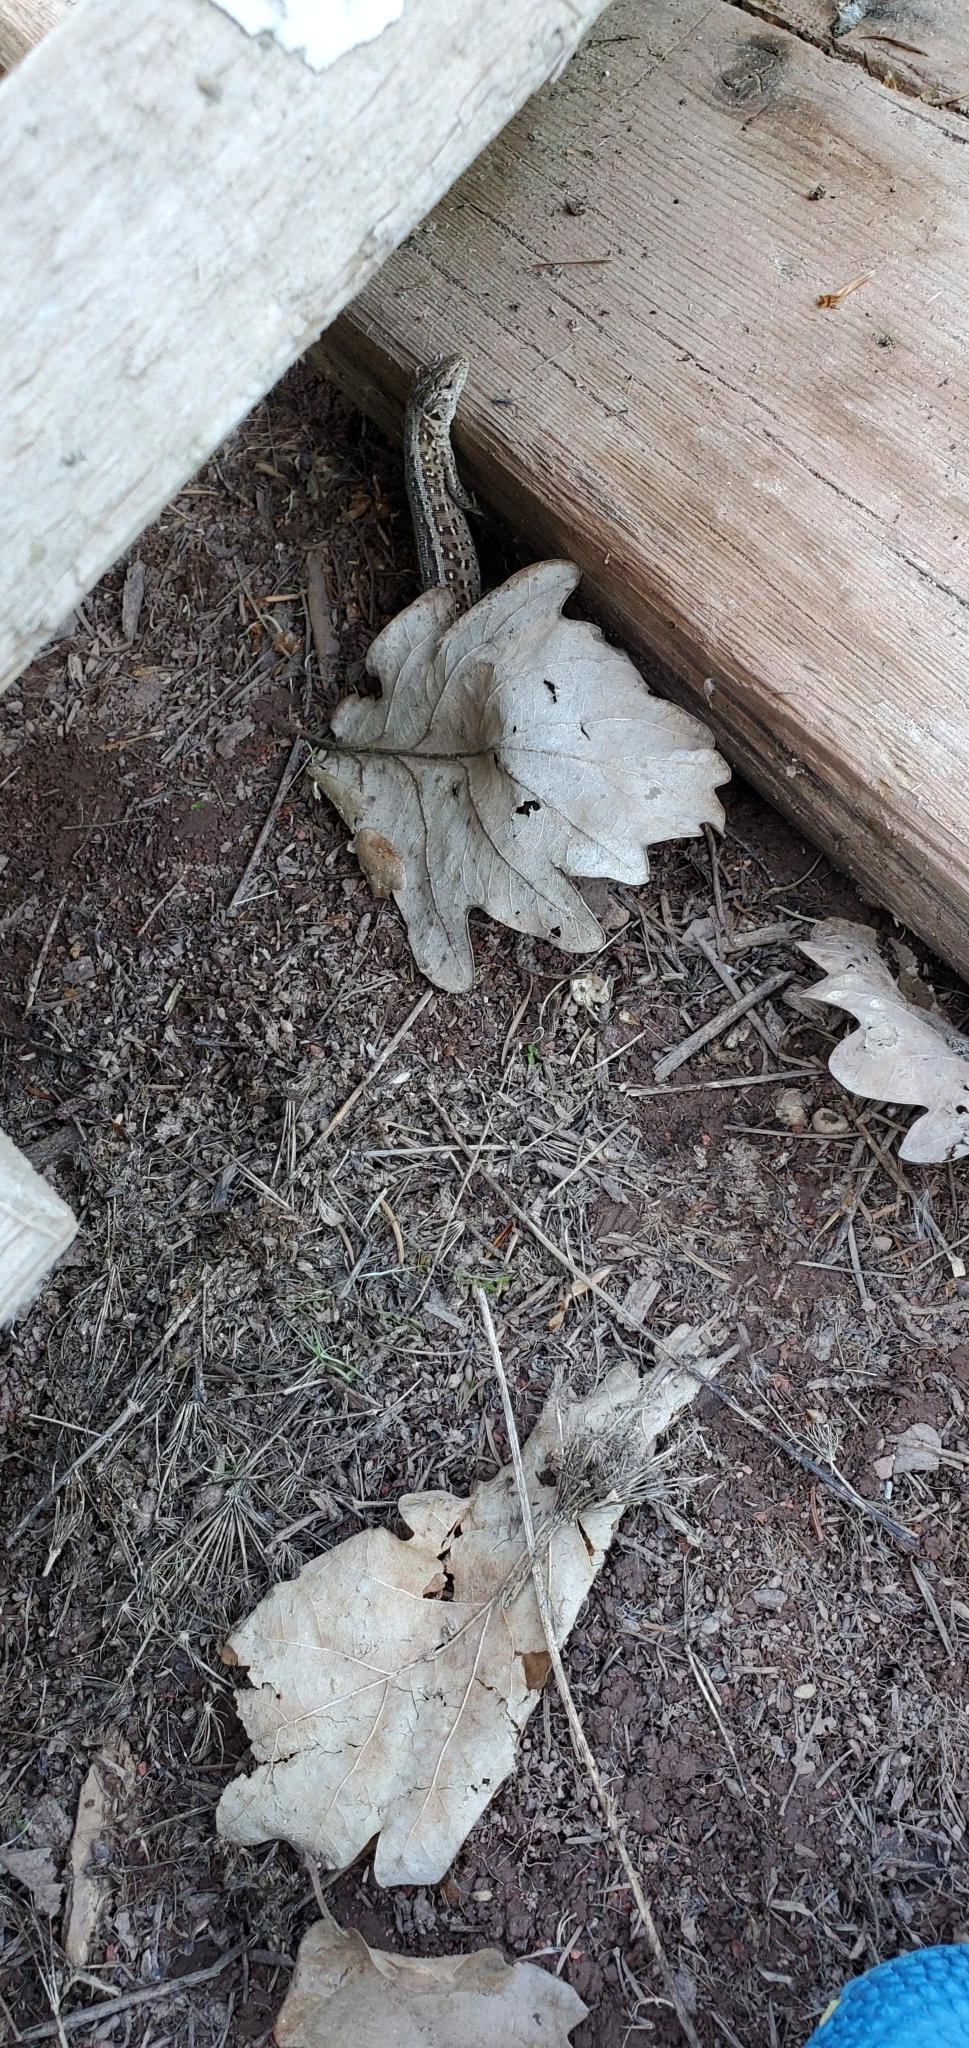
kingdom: Animalia
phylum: Chordata
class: Squamata
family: Lacertidae
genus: Lacerta
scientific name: Lacerta agilis
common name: Sand lizard
